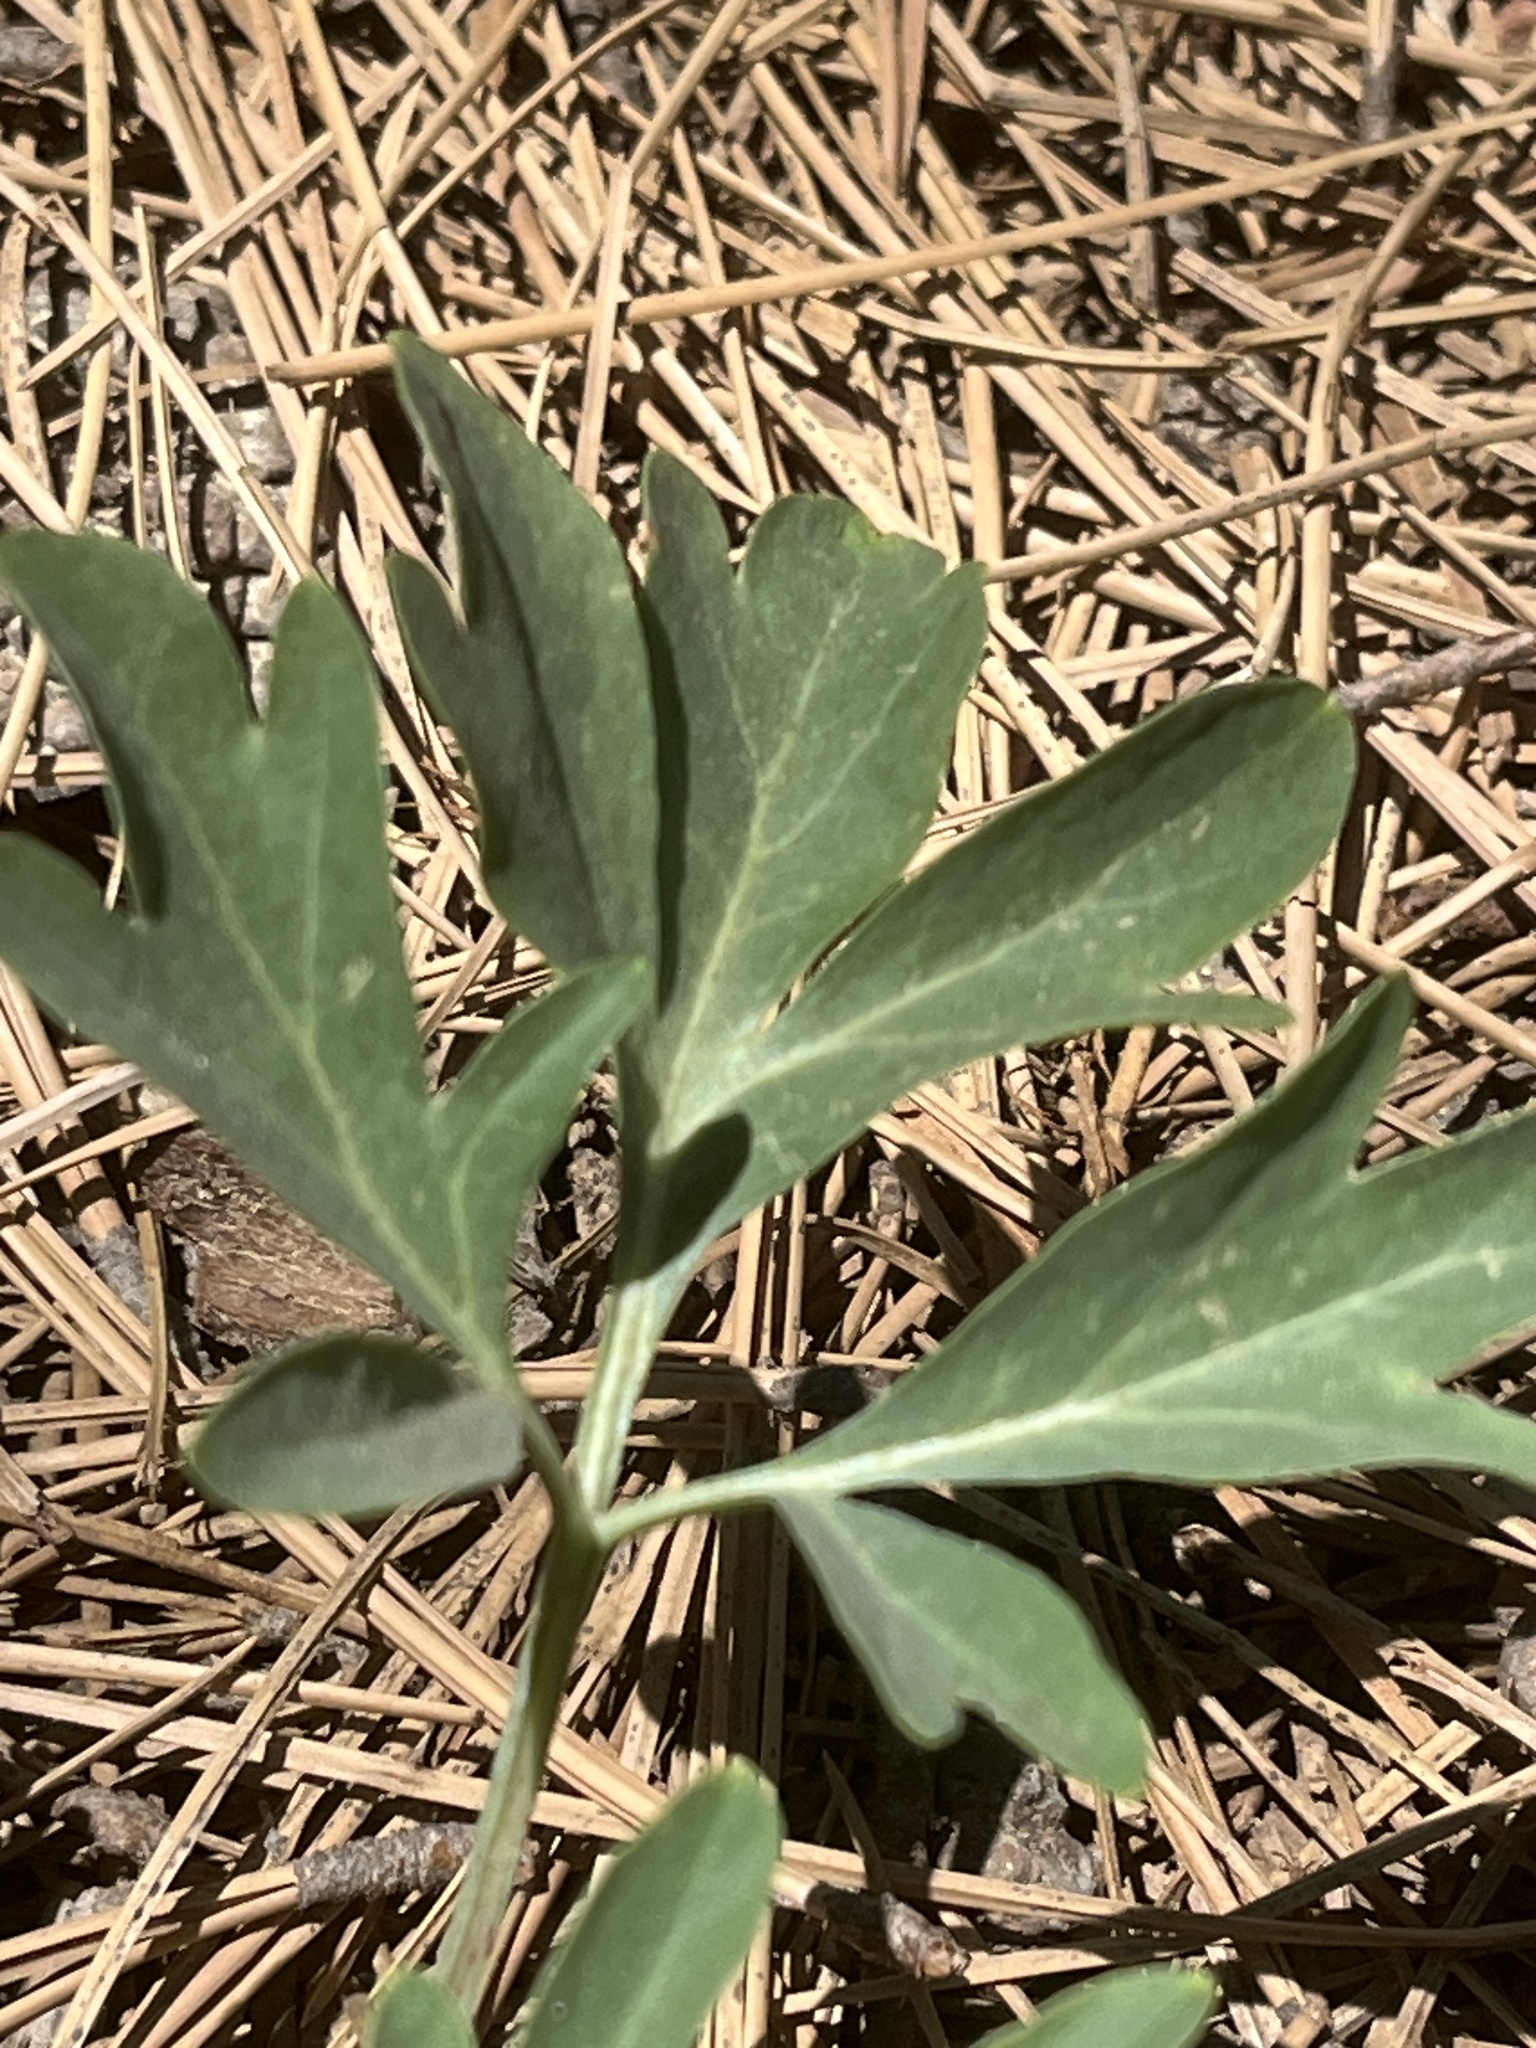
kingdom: Plantae
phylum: Tracheophyta
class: Magnoliopsida
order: Saxifragales
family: Paeoniaceae
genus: Paeonia
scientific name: Paeonia brownii
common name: Brown's peony
